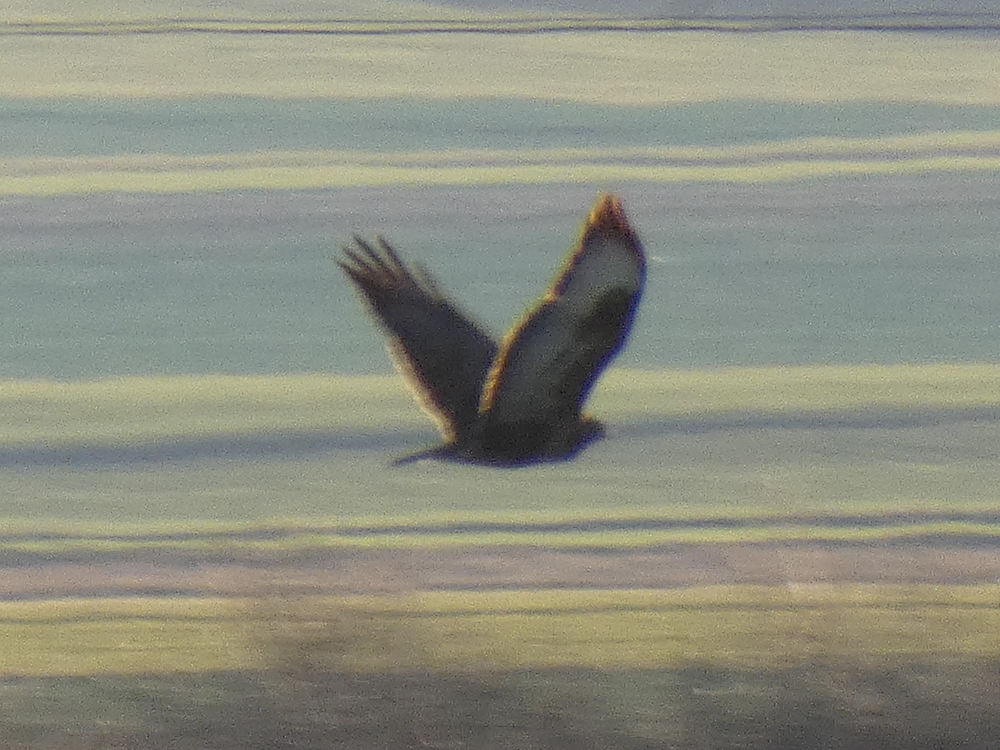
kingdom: Animalia
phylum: Chordata
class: Aves
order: Accipitriformes
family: Accipitridae
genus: Buteo
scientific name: Buteo buteo
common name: Common buzzard
